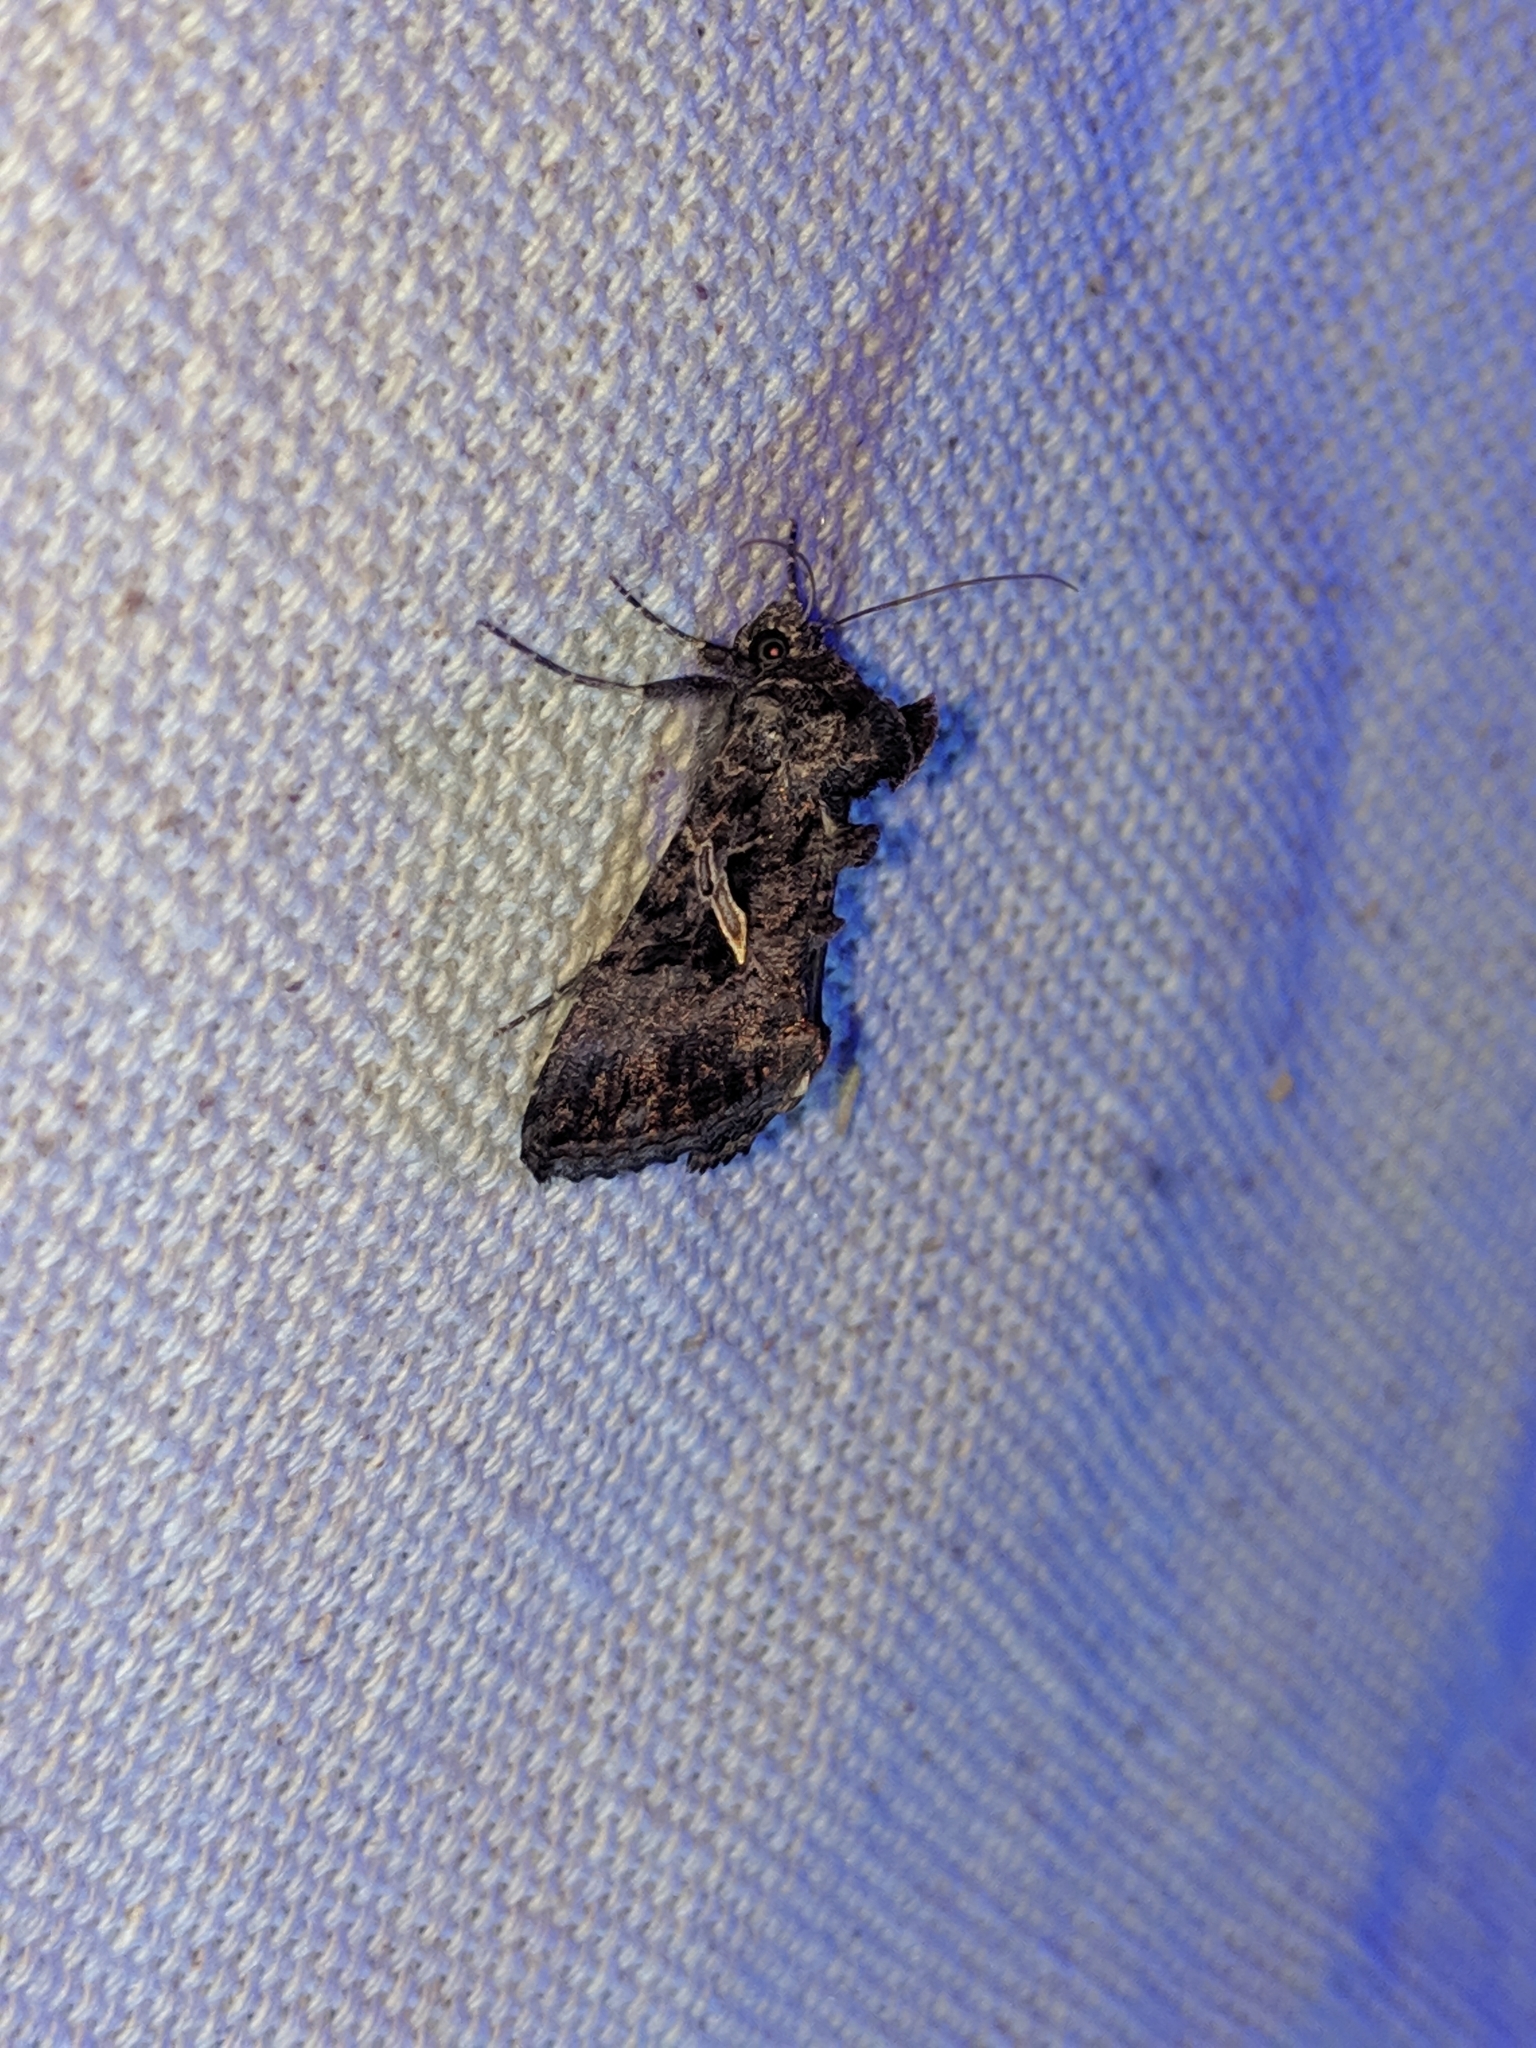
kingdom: Animalia
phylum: Arthropoda
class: Insecta
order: Lepidoptera
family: Noctuidae
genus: Ctenoplusia
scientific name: Ctenoplusia oxygramma
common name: Sharp-stigma looper moth
